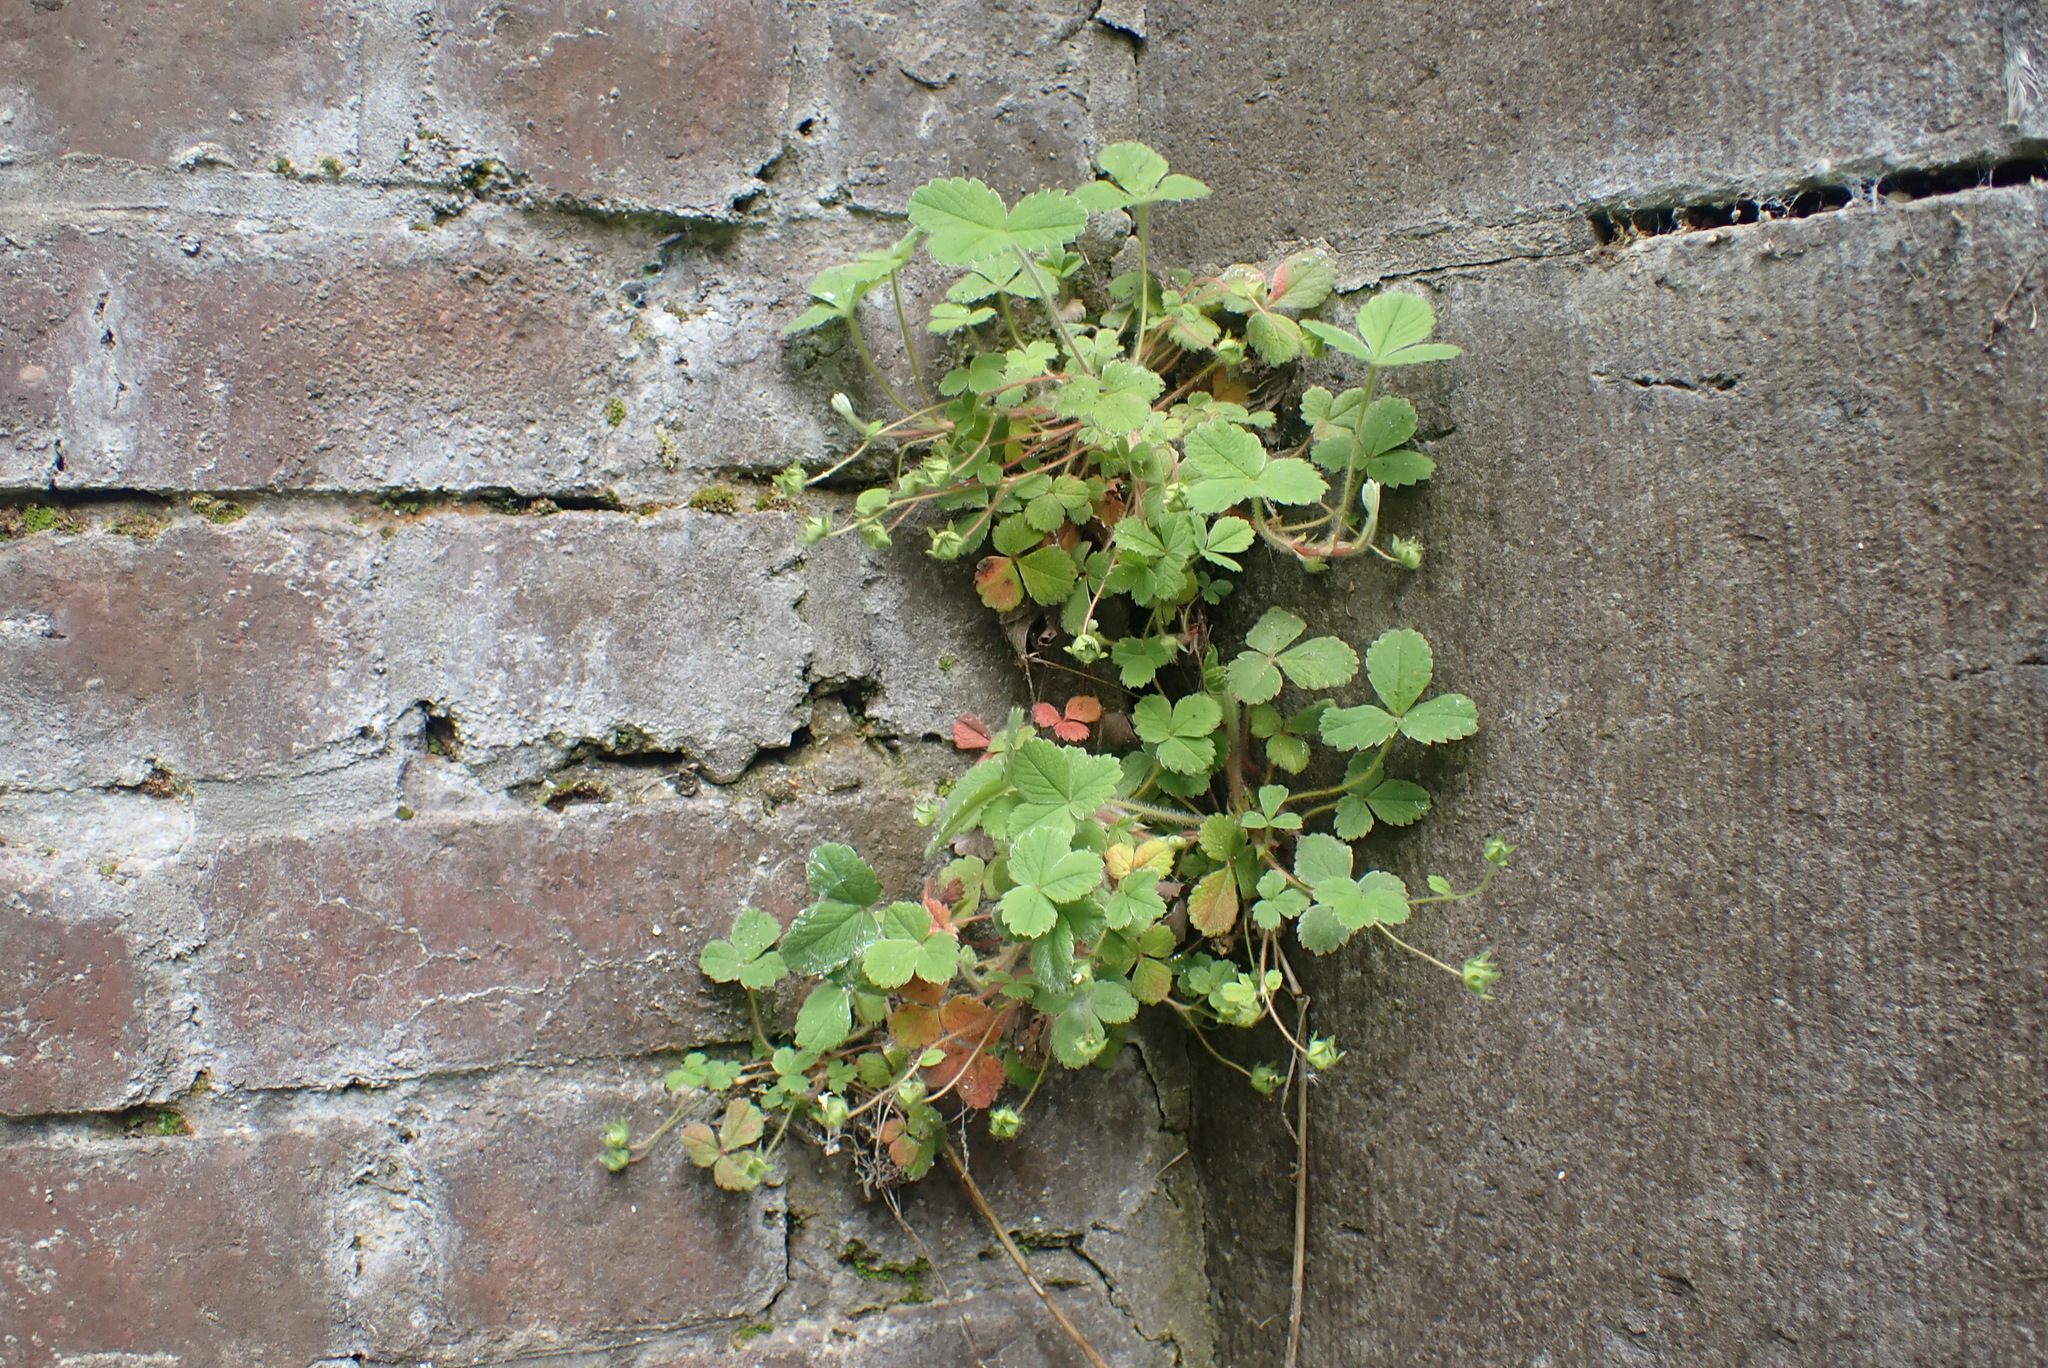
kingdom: Plantae
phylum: Tracheophyta
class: Magnoliopsida
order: Rosales
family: Rosaceae
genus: Potentilla
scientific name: Potentilla sterilis
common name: Barren strawberry
